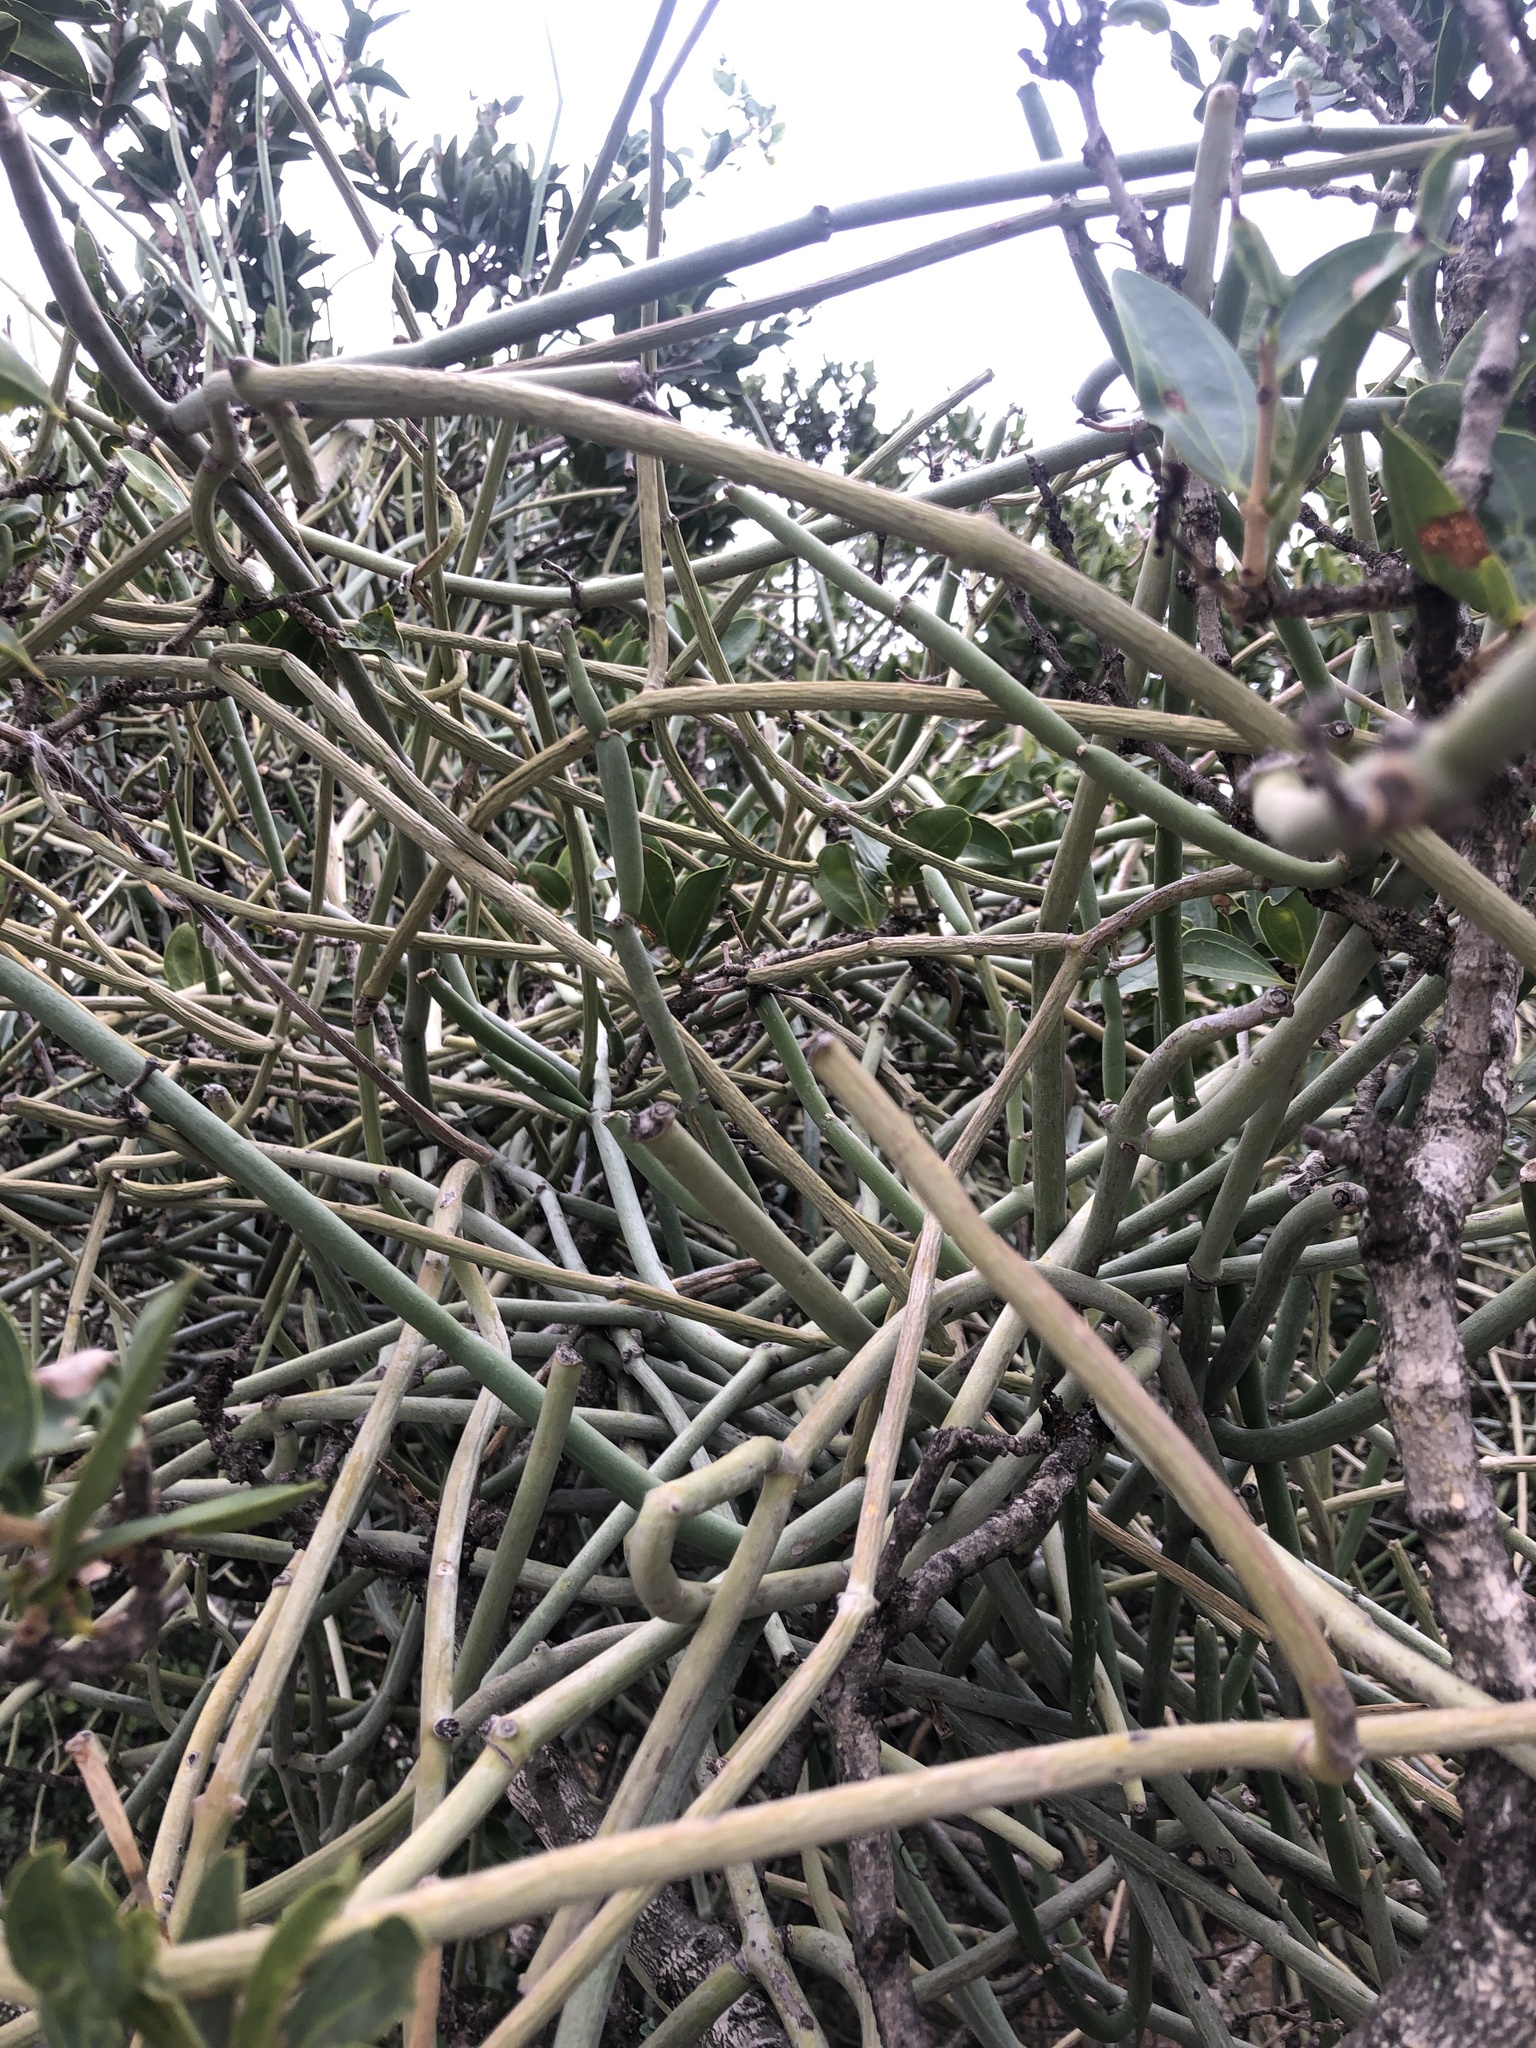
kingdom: Plantae
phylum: Tracheophyta
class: Magnoliopsida
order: Gentianales
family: Apocynaceae
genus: Cynanchum
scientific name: Cynanchum viminale
